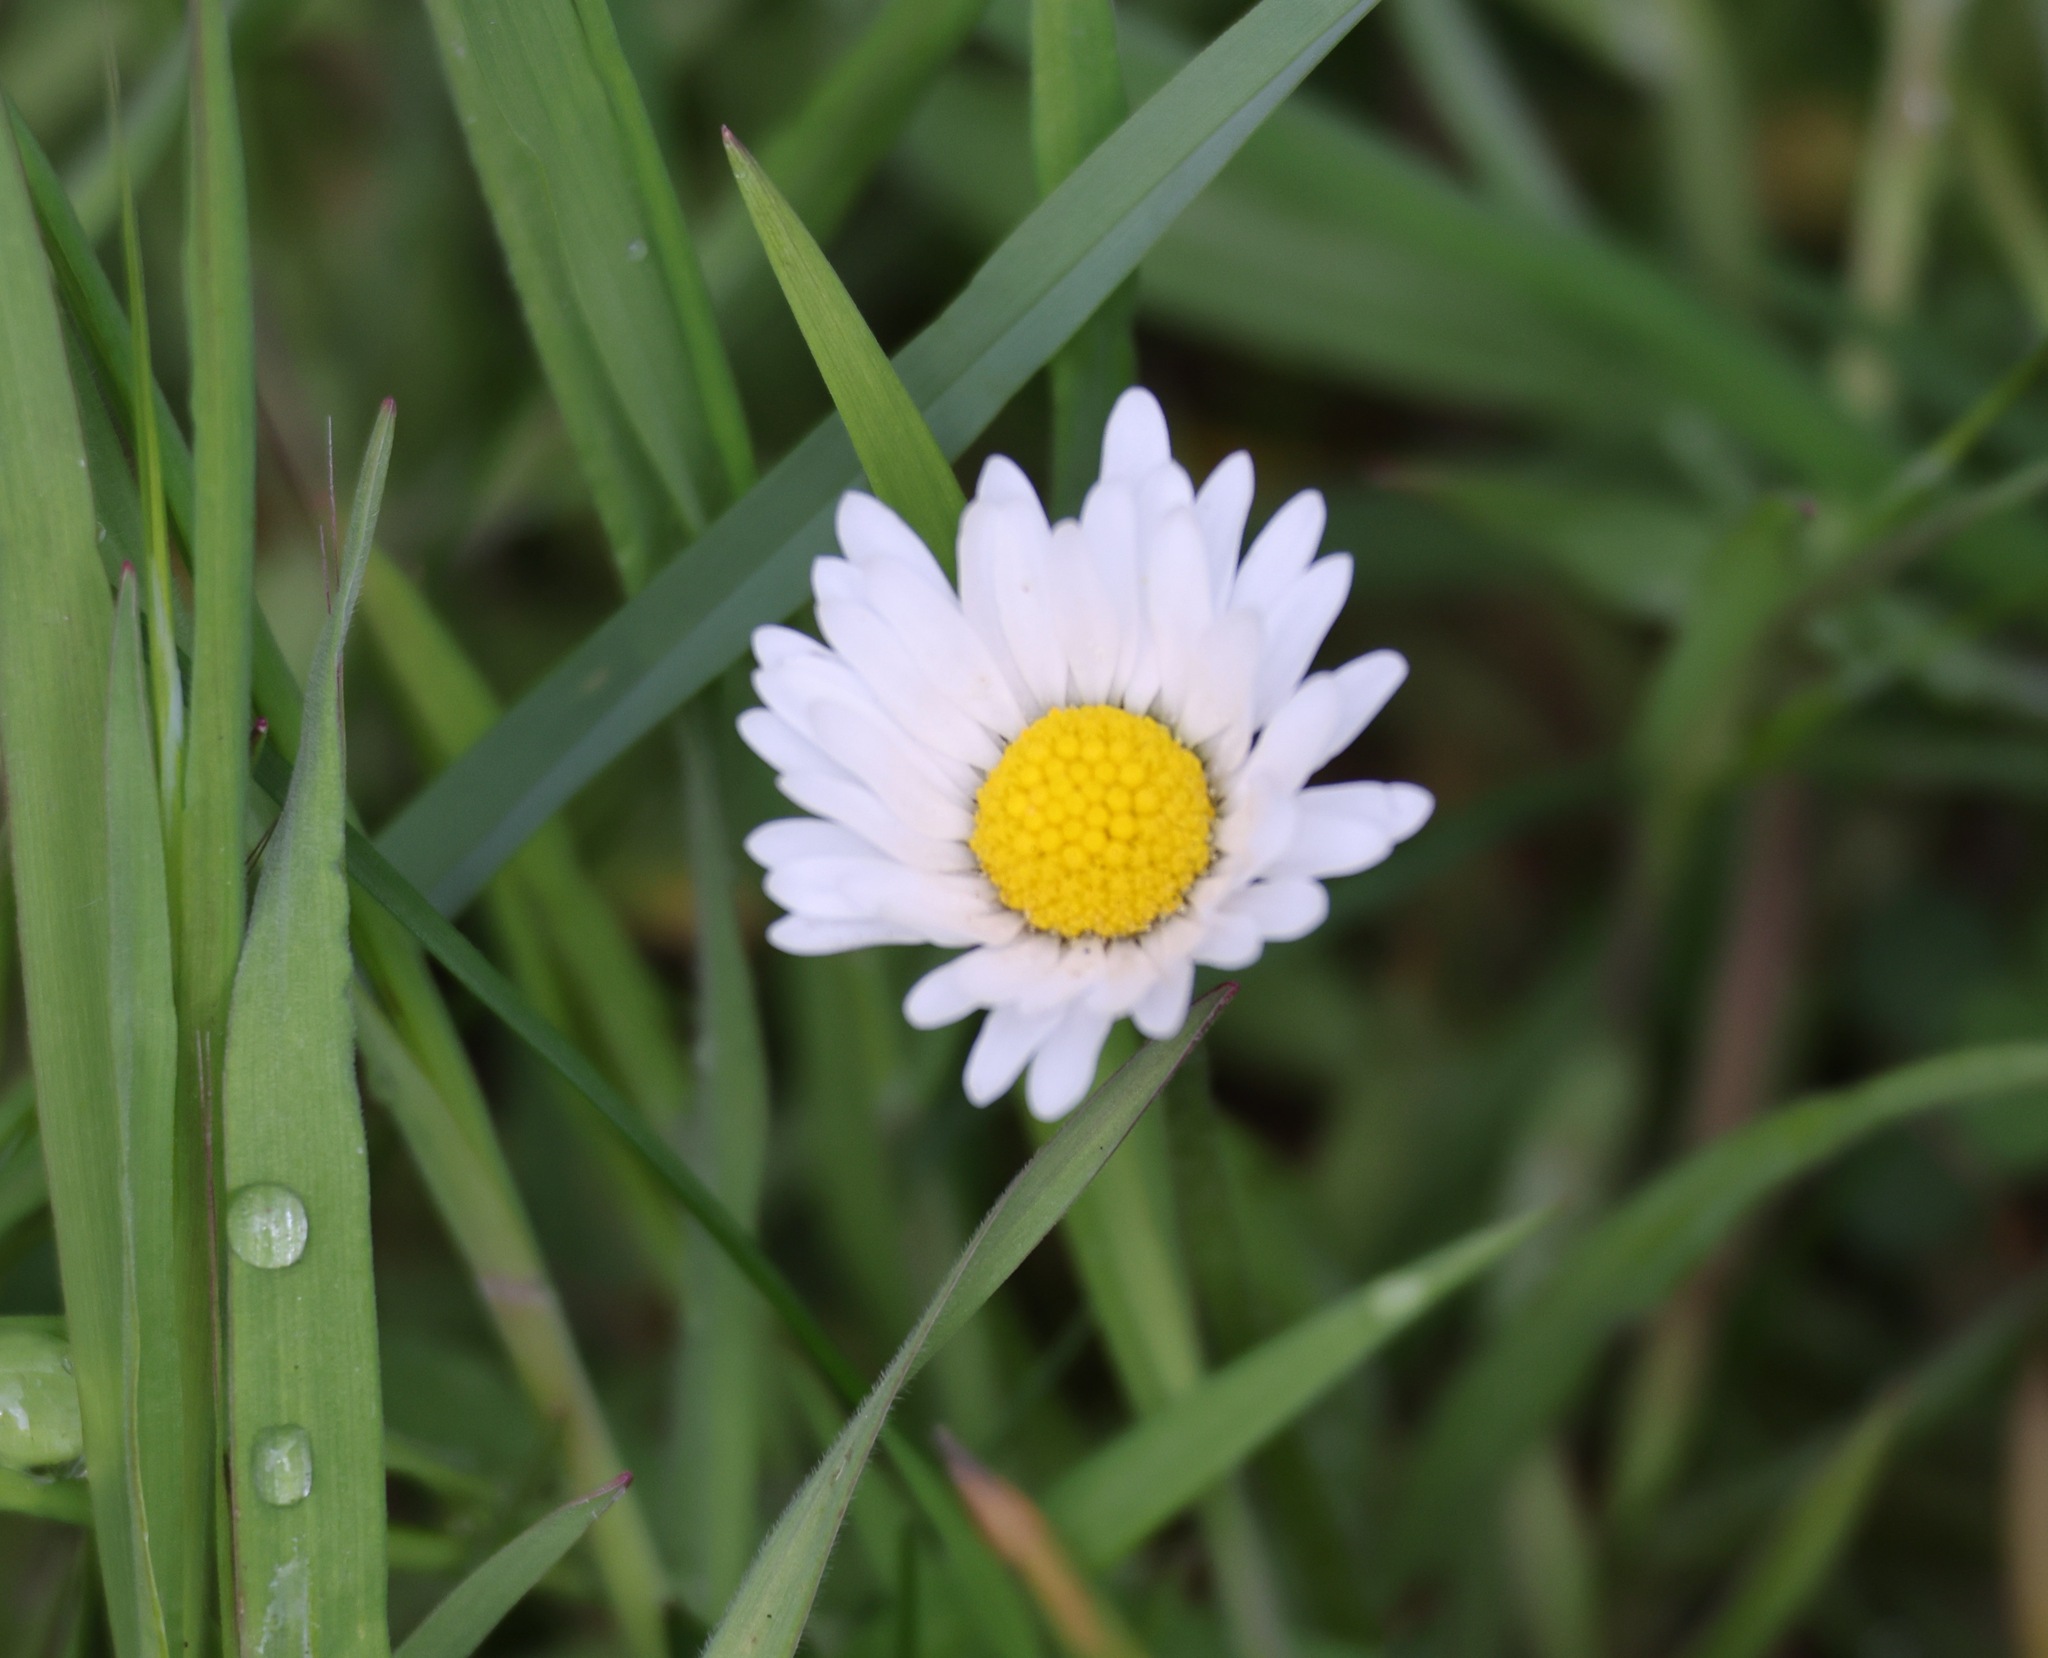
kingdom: Plantae
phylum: Tracheophyta
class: Magnoliopsida
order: Asterales
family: Asteraceae
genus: Bellis
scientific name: Bellis perennis
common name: Lawndaisy
